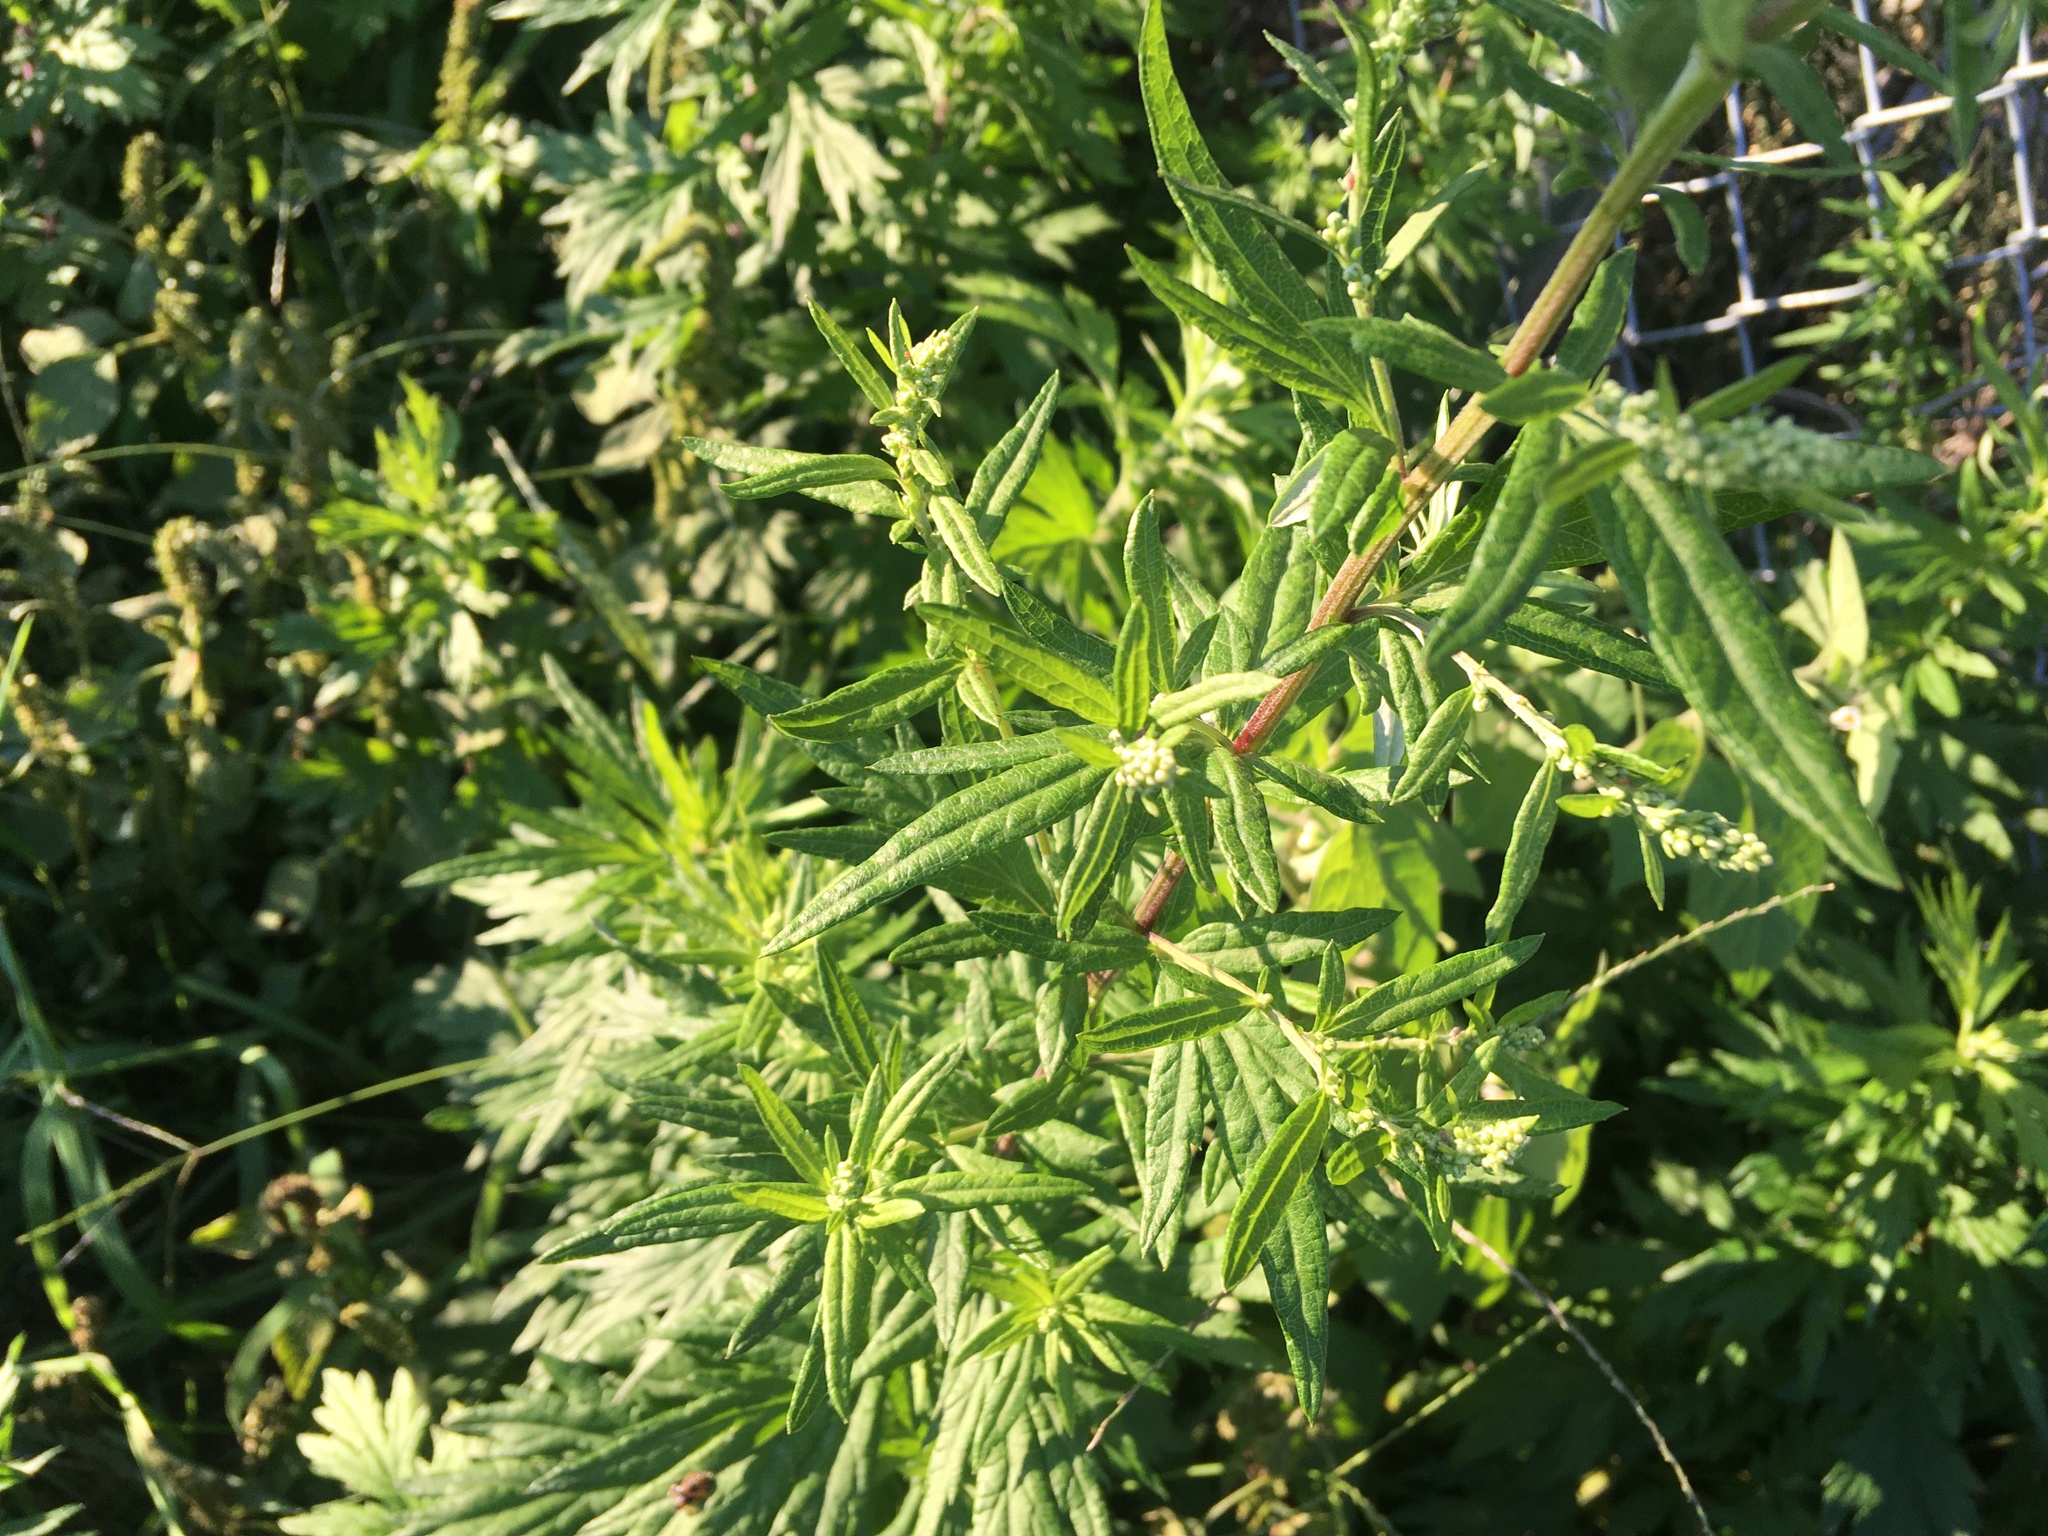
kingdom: Plantae
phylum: Tracheophyta
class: Magnoliopsida
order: Asterales
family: Asteraceae
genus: Artemisia
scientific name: Artemisia vulgaris
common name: Mugwort
